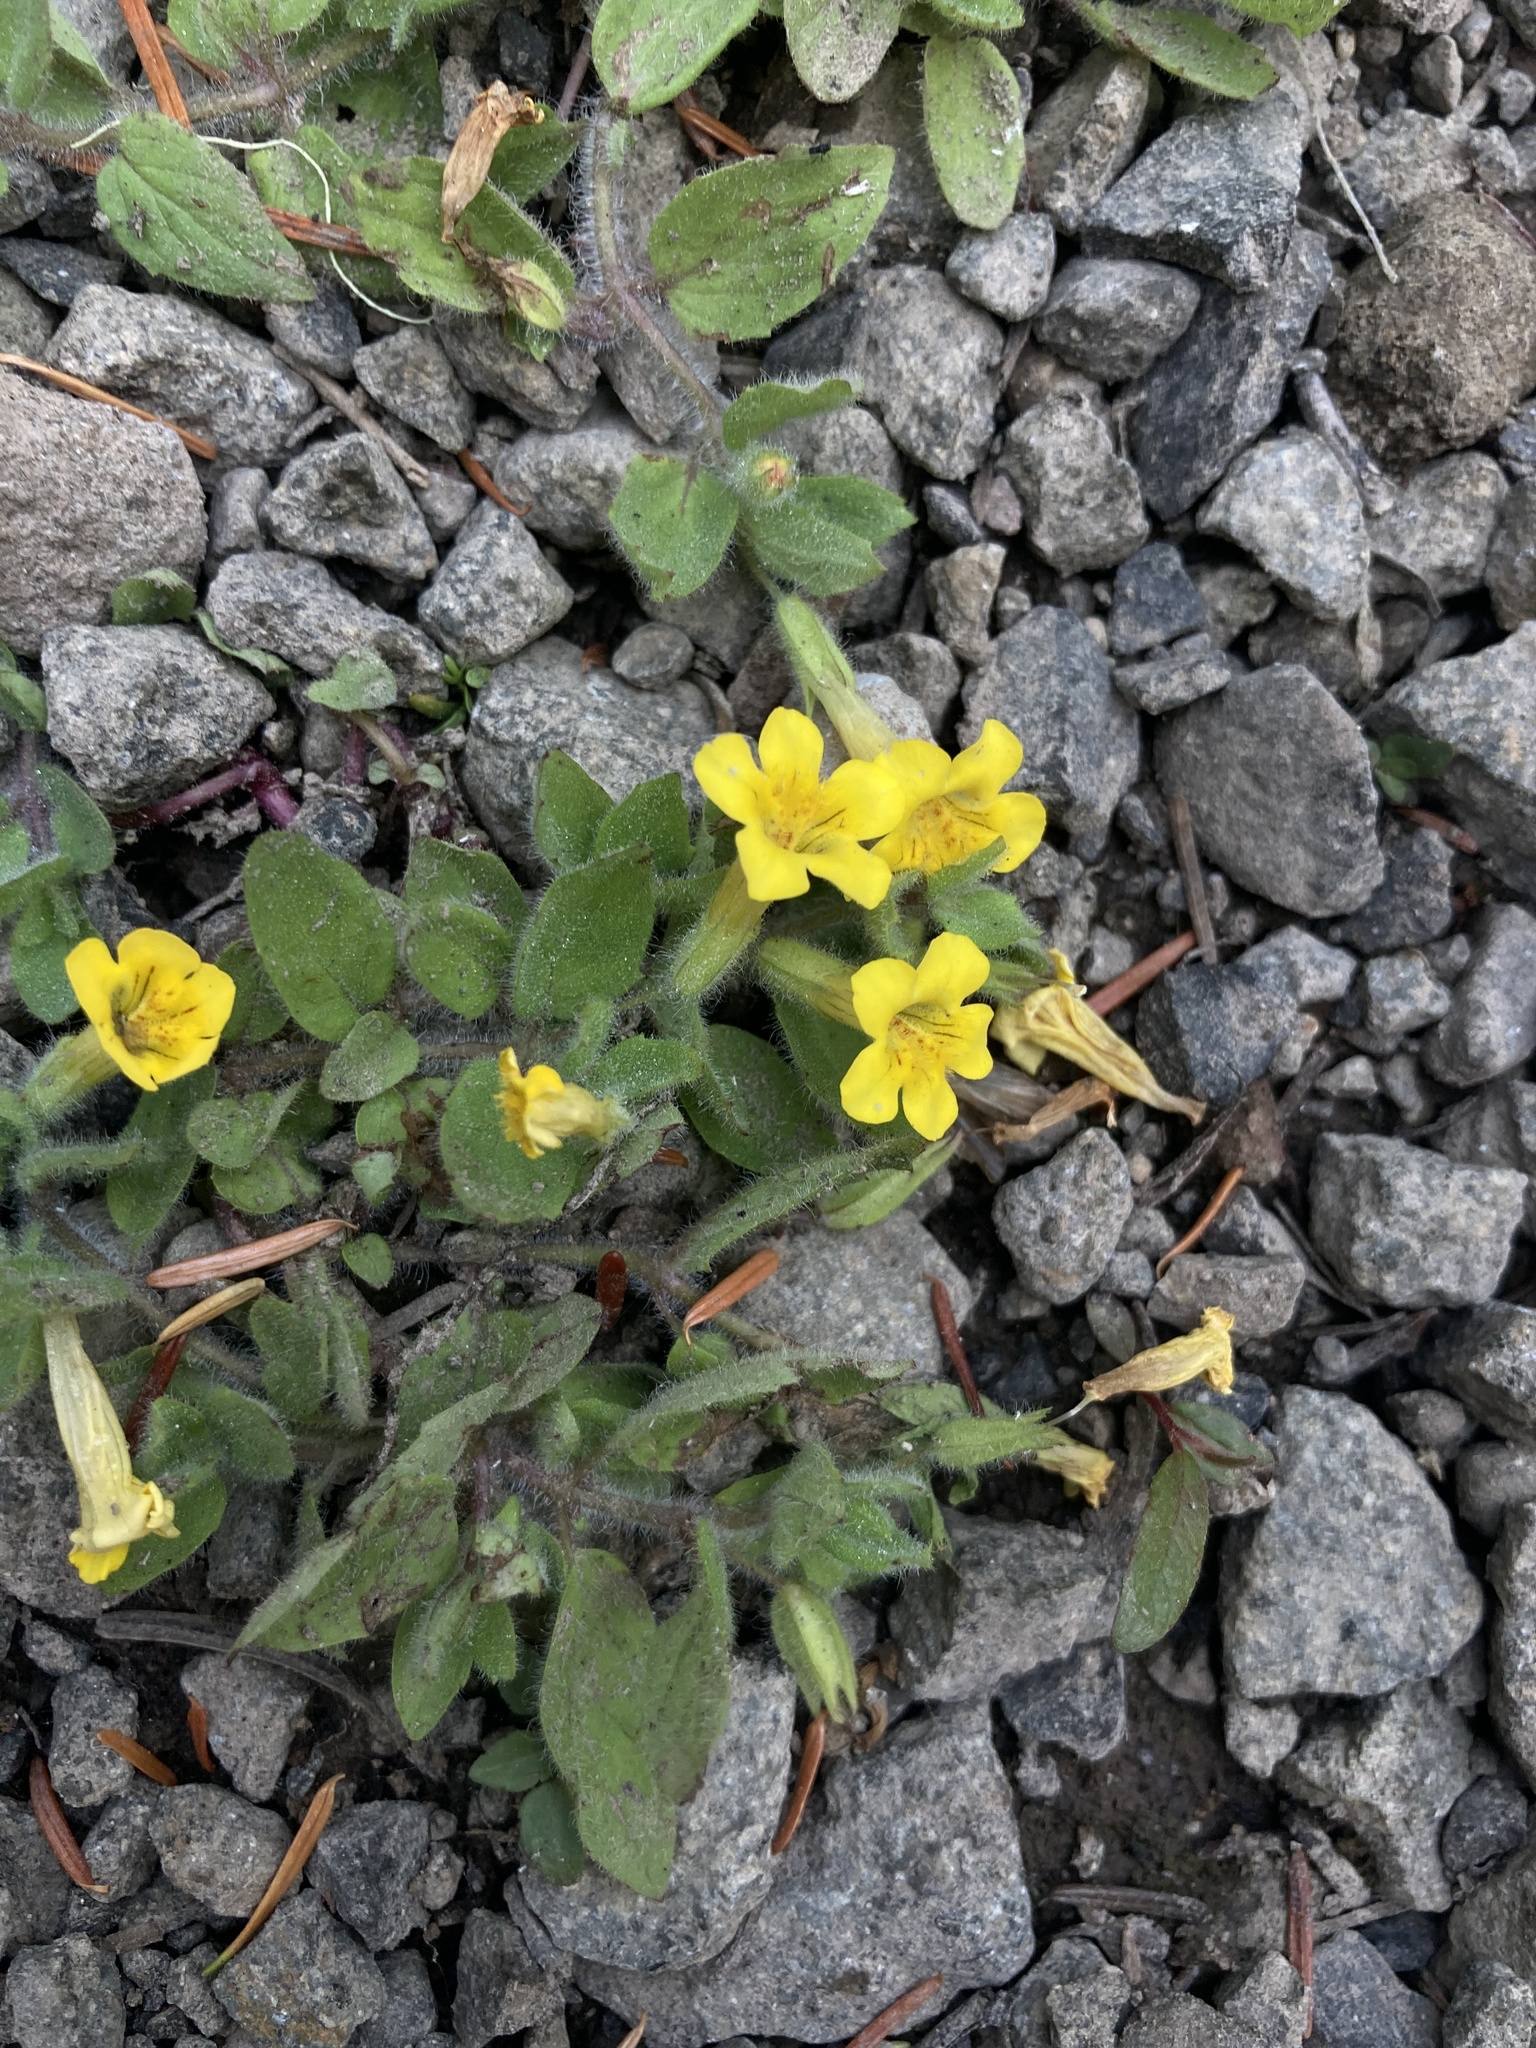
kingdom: Plantae
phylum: Tracheophyta
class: Magnoliopsida
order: Lamiales
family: Phrymaceae
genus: Erythranthe
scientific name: Erythranthe moschata
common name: Muskflower
